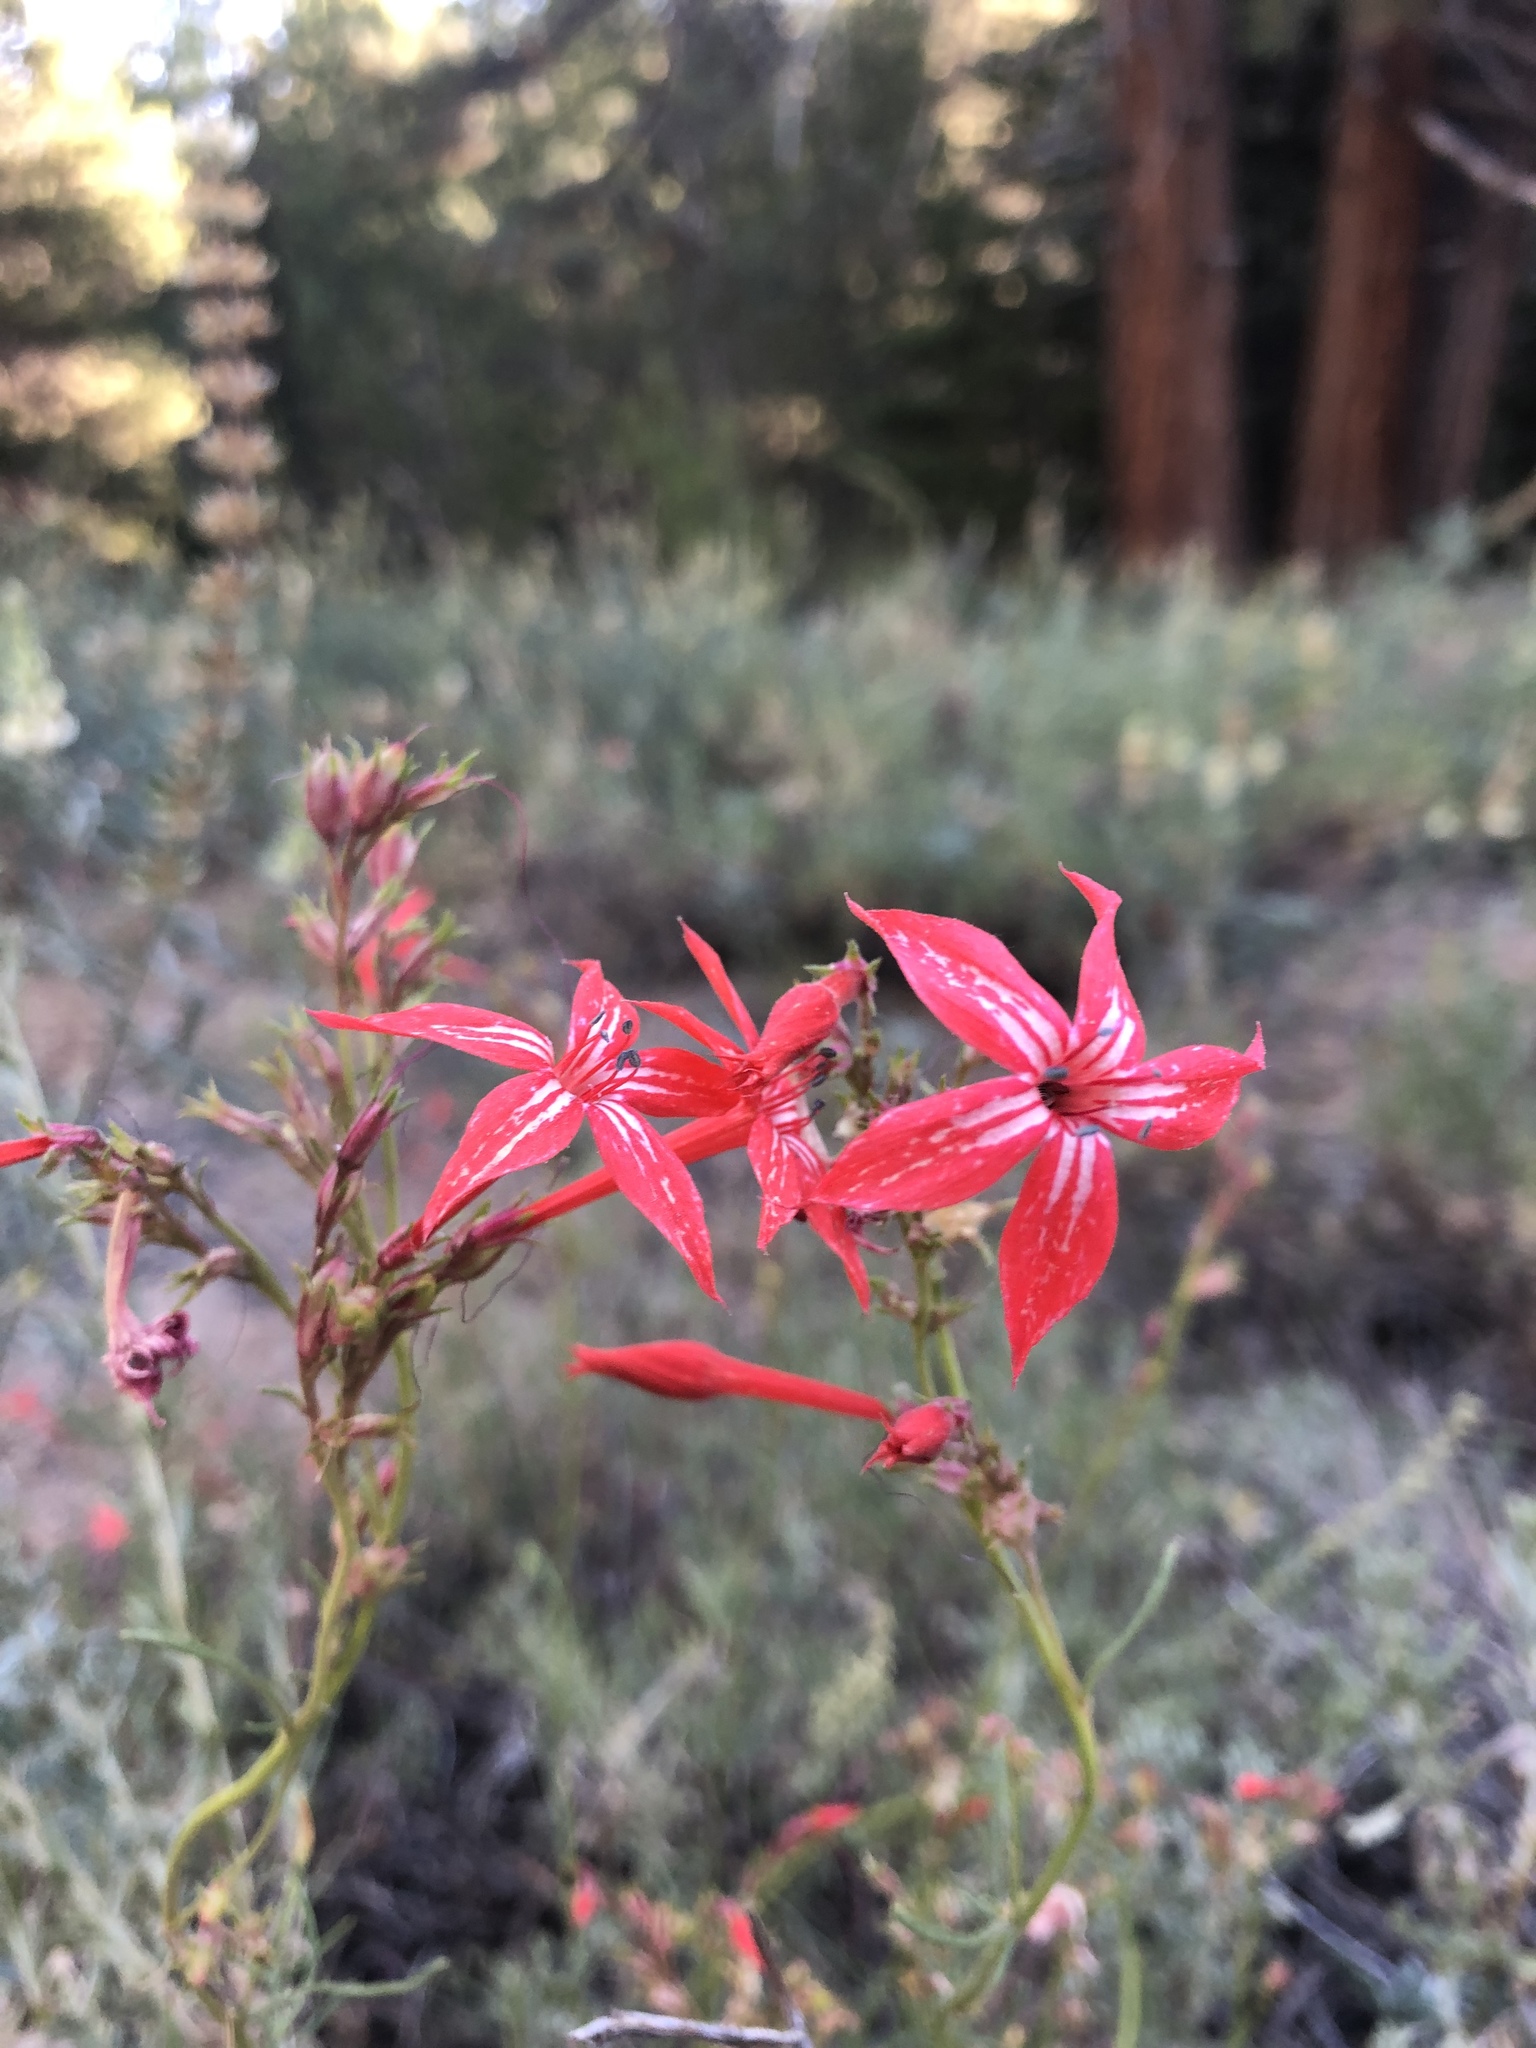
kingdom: Plantae
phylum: Tracheophyta
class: Magnoliopsida
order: Ericales
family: Polemoniaceae
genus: Ipomopsis
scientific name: Ipomopsis aggregata
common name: Scarlet gilia
